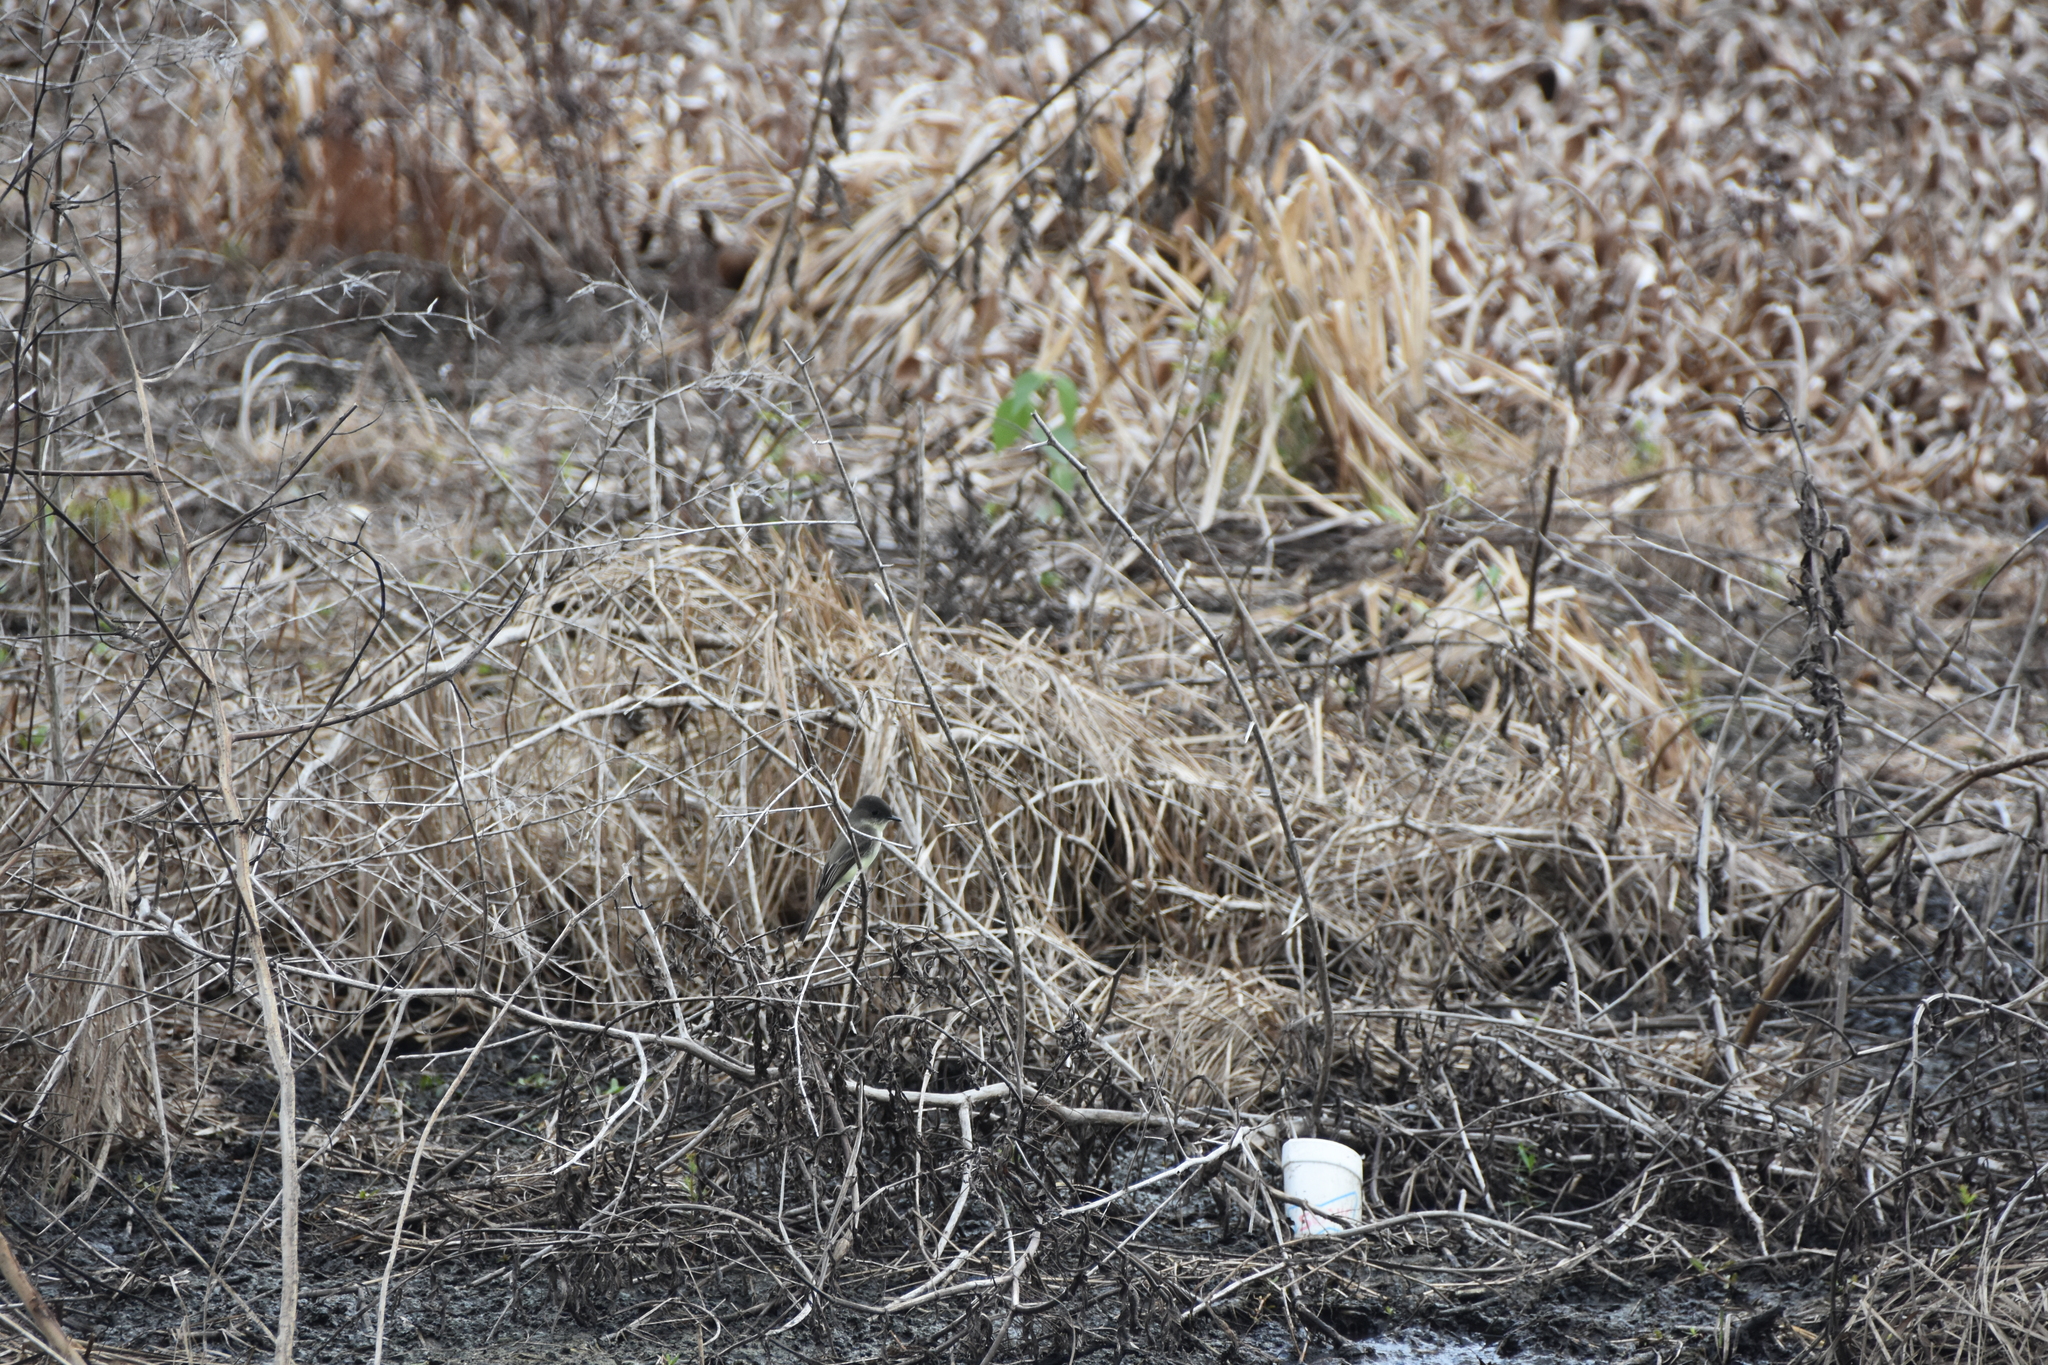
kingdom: Animalia
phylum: Chordata
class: Aves
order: Passeriformes
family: Tyrannidae
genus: Sayornis
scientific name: Sayornis phoebe
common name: Eastern phoebe
